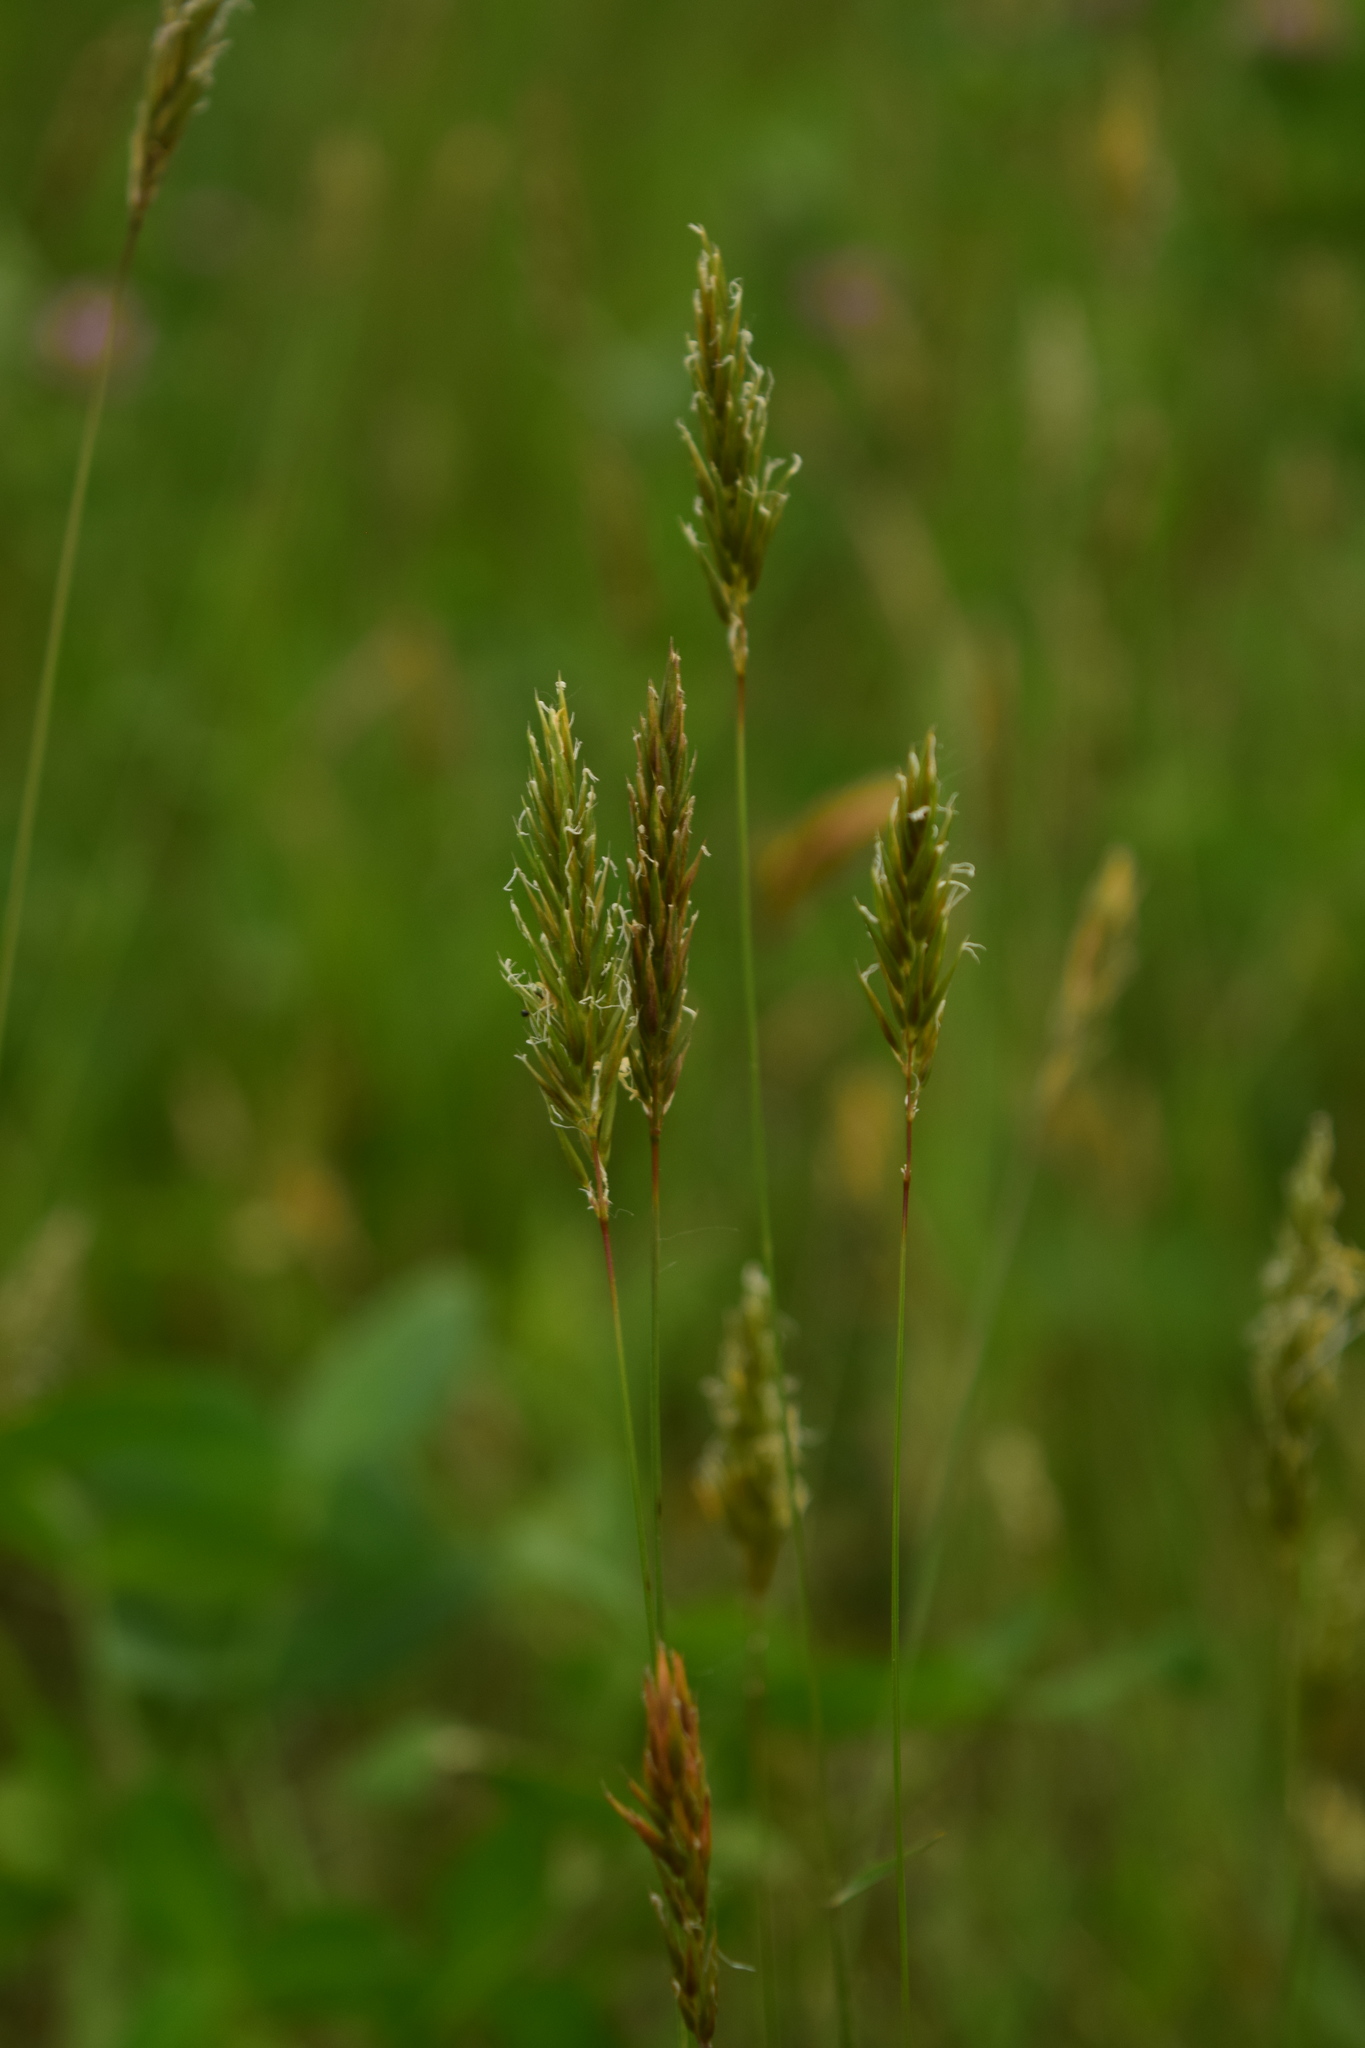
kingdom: Plantae
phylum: Tracheophyta
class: Liliopsida
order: Poales
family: Poaceae
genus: Anthoxanthum
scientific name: Anthoxanthum odoratum
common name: Sweet vernalgrass
